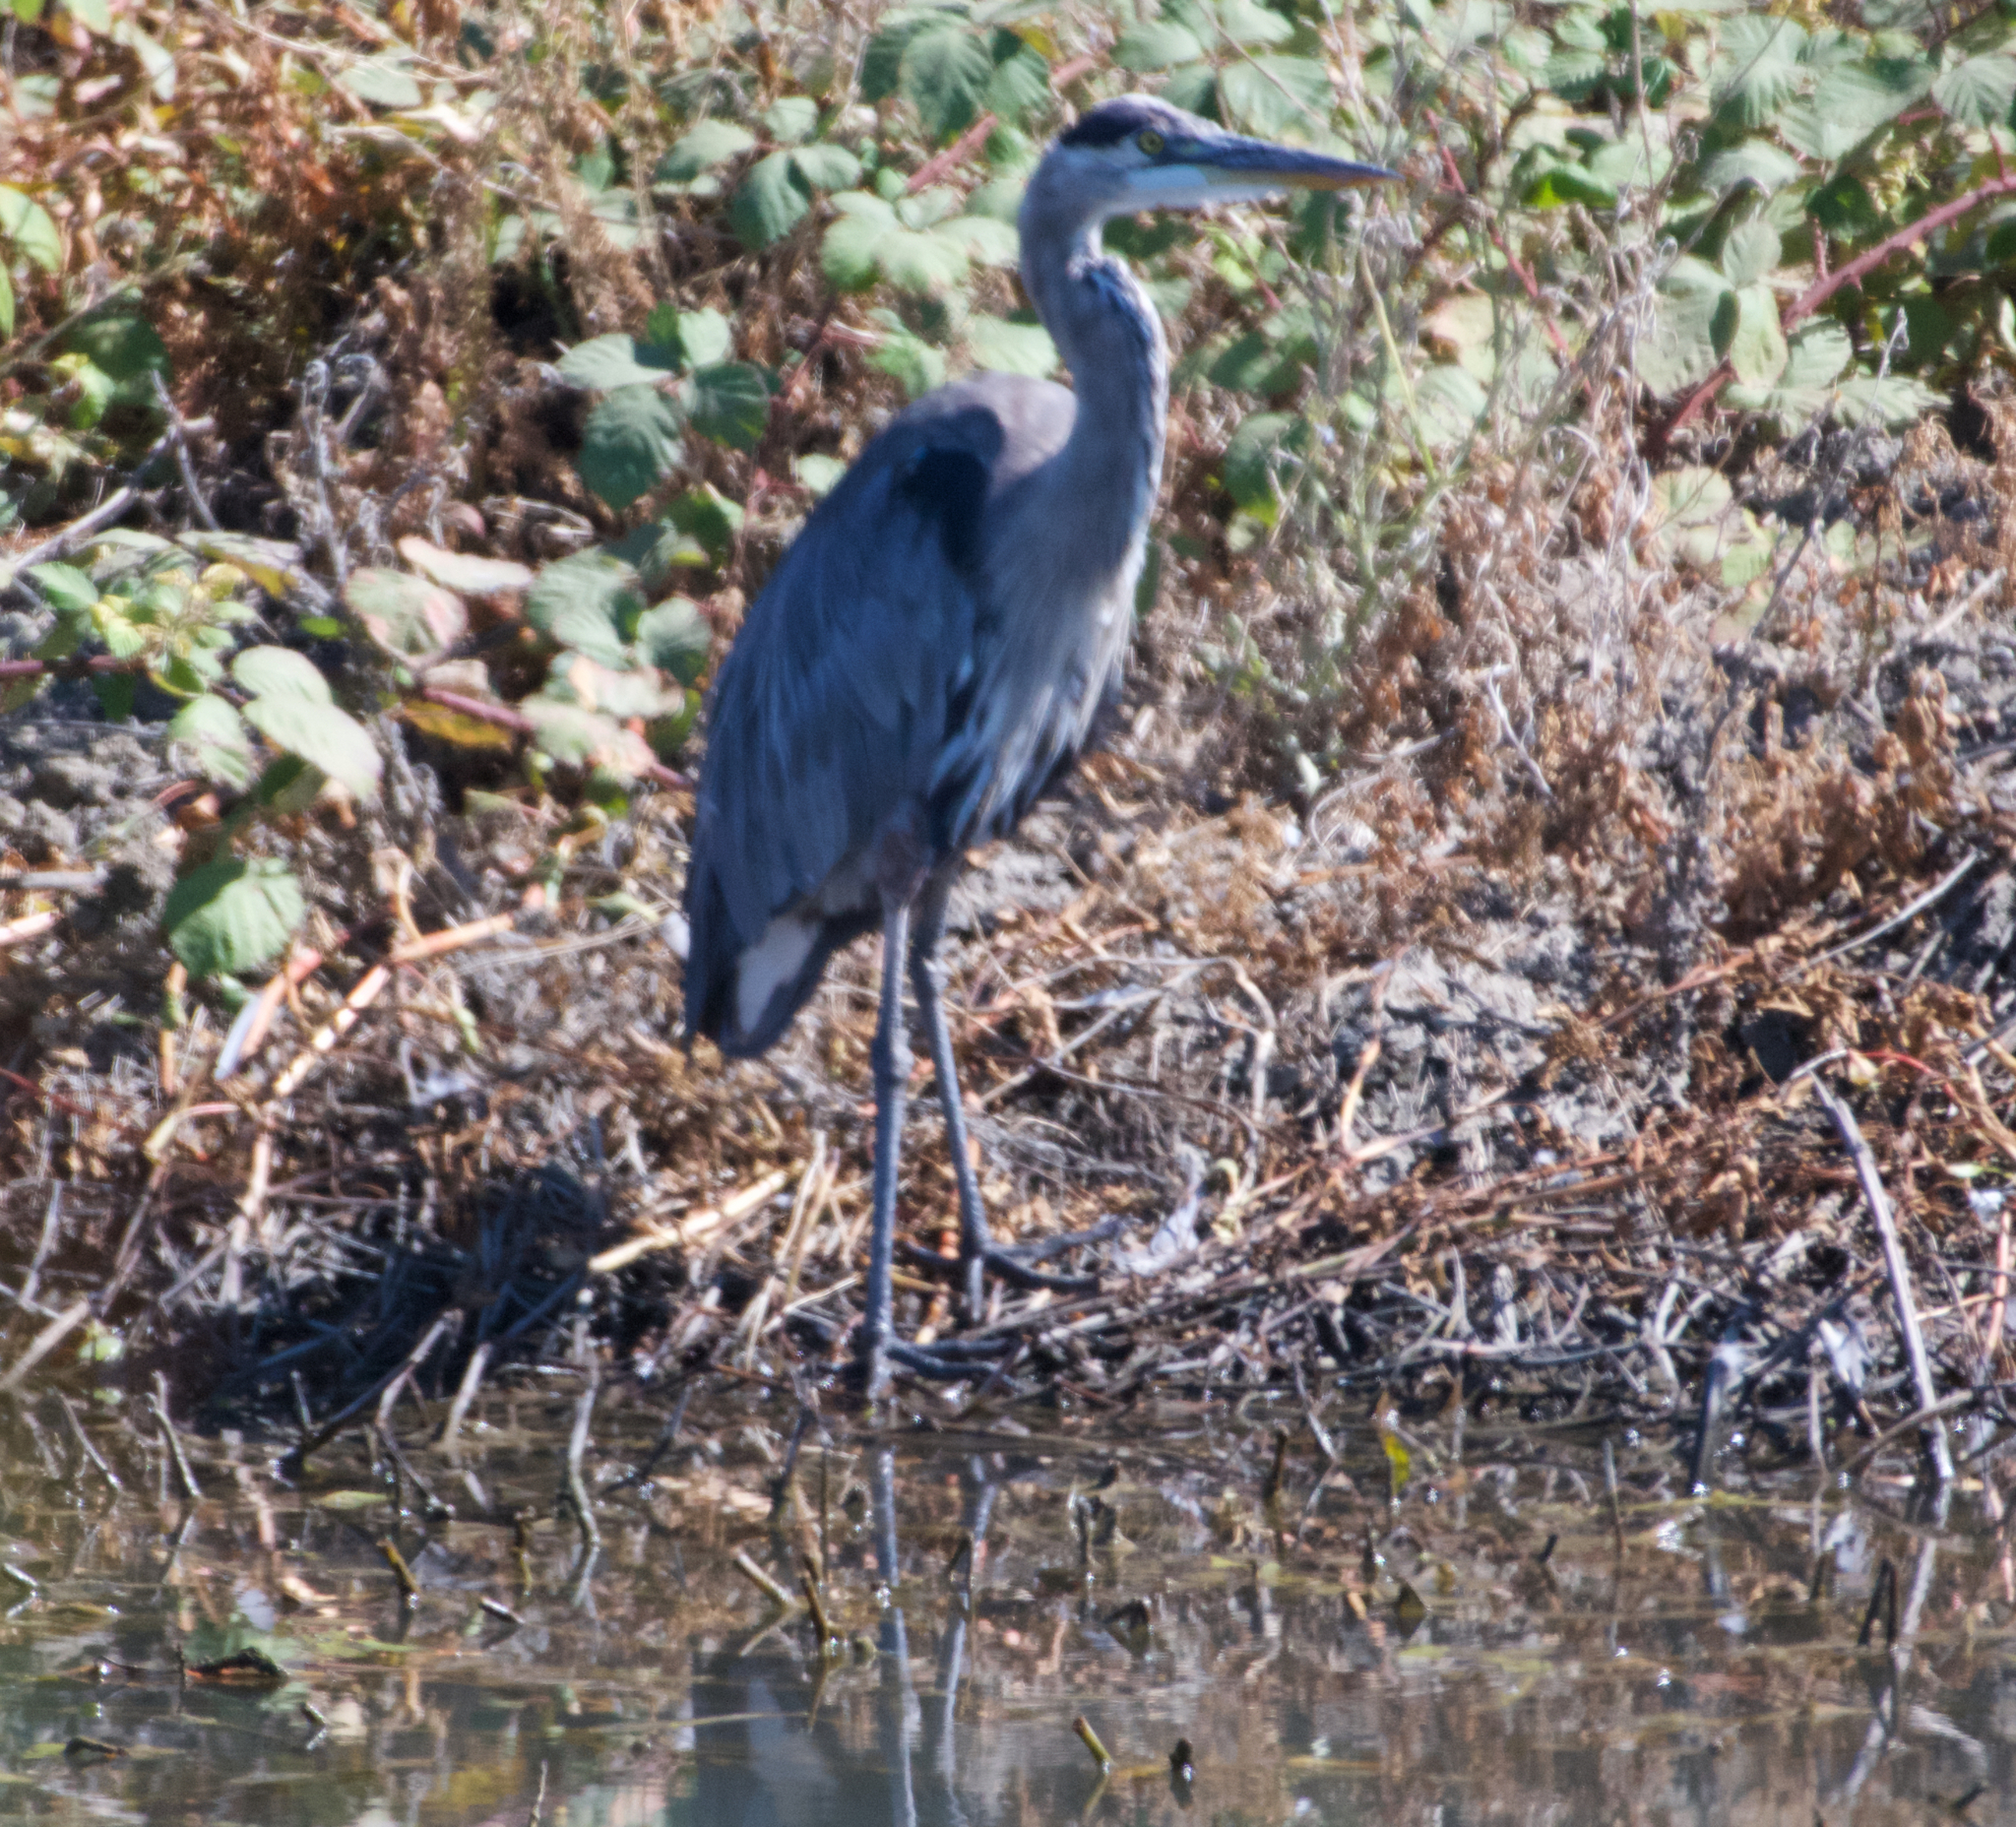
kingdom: Animalia
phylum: Chordata
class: Aves
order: Pelecaniformes
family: Ardeidae
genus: Ardea
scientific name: Ardea herodias
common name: Great blue heron
